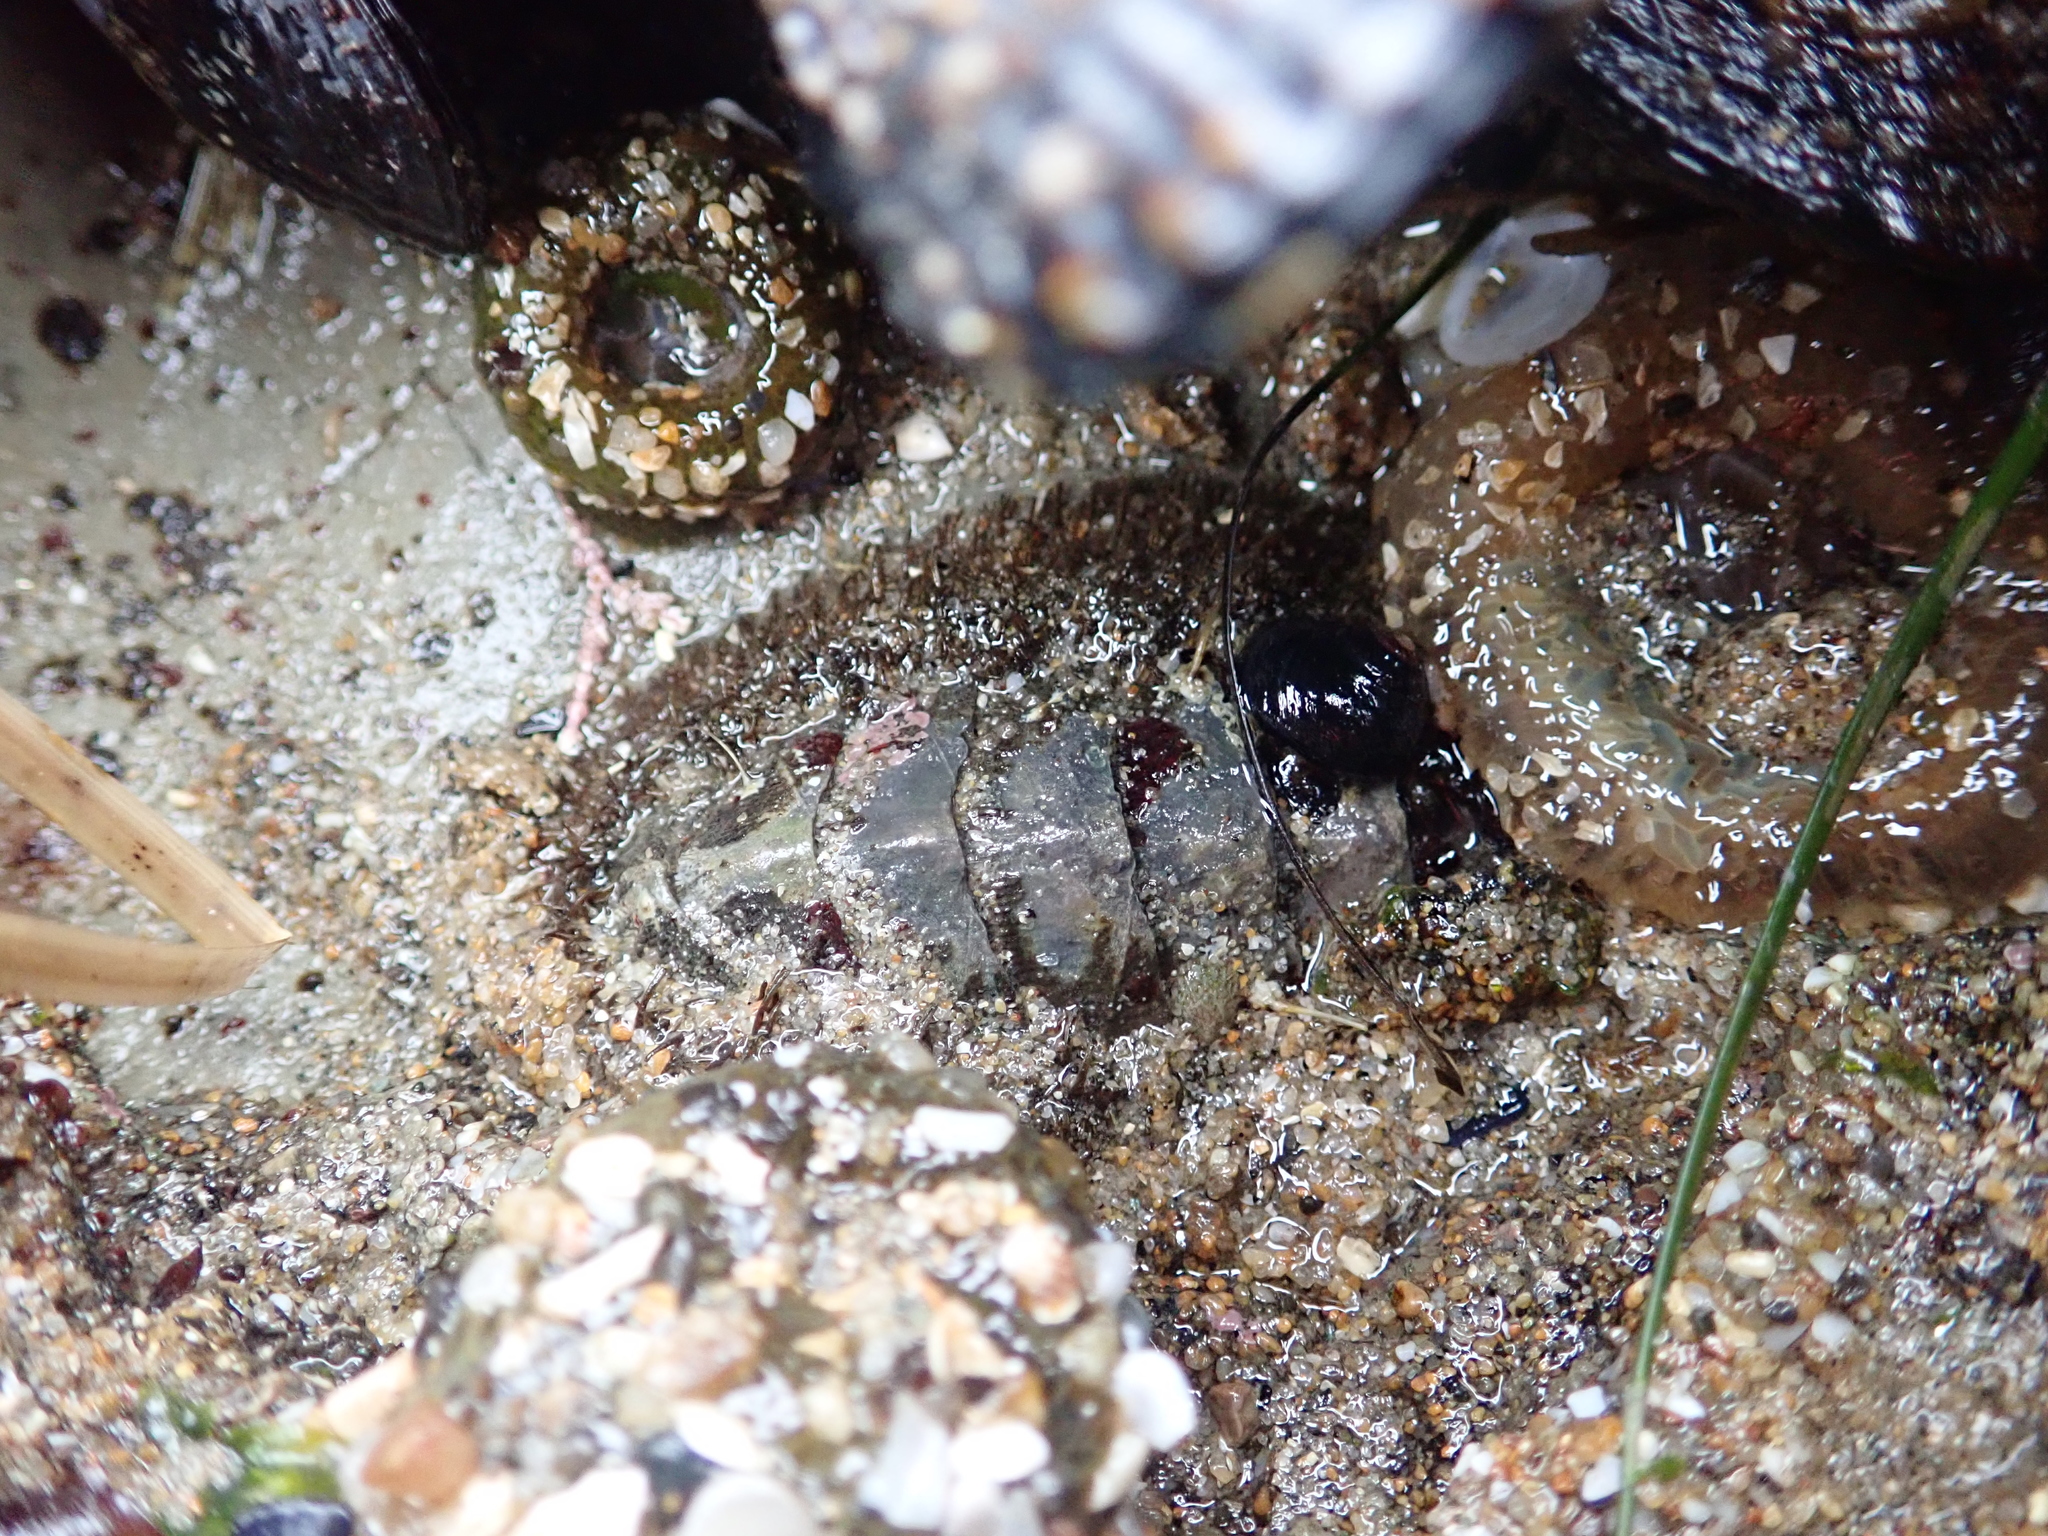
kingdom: Animalia
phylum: Mollusca
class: Polyplacophora
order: Chitonida
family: Mopaliidae
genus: Mopalia
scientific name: Mopalia muscosa
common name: Mossy chiton
